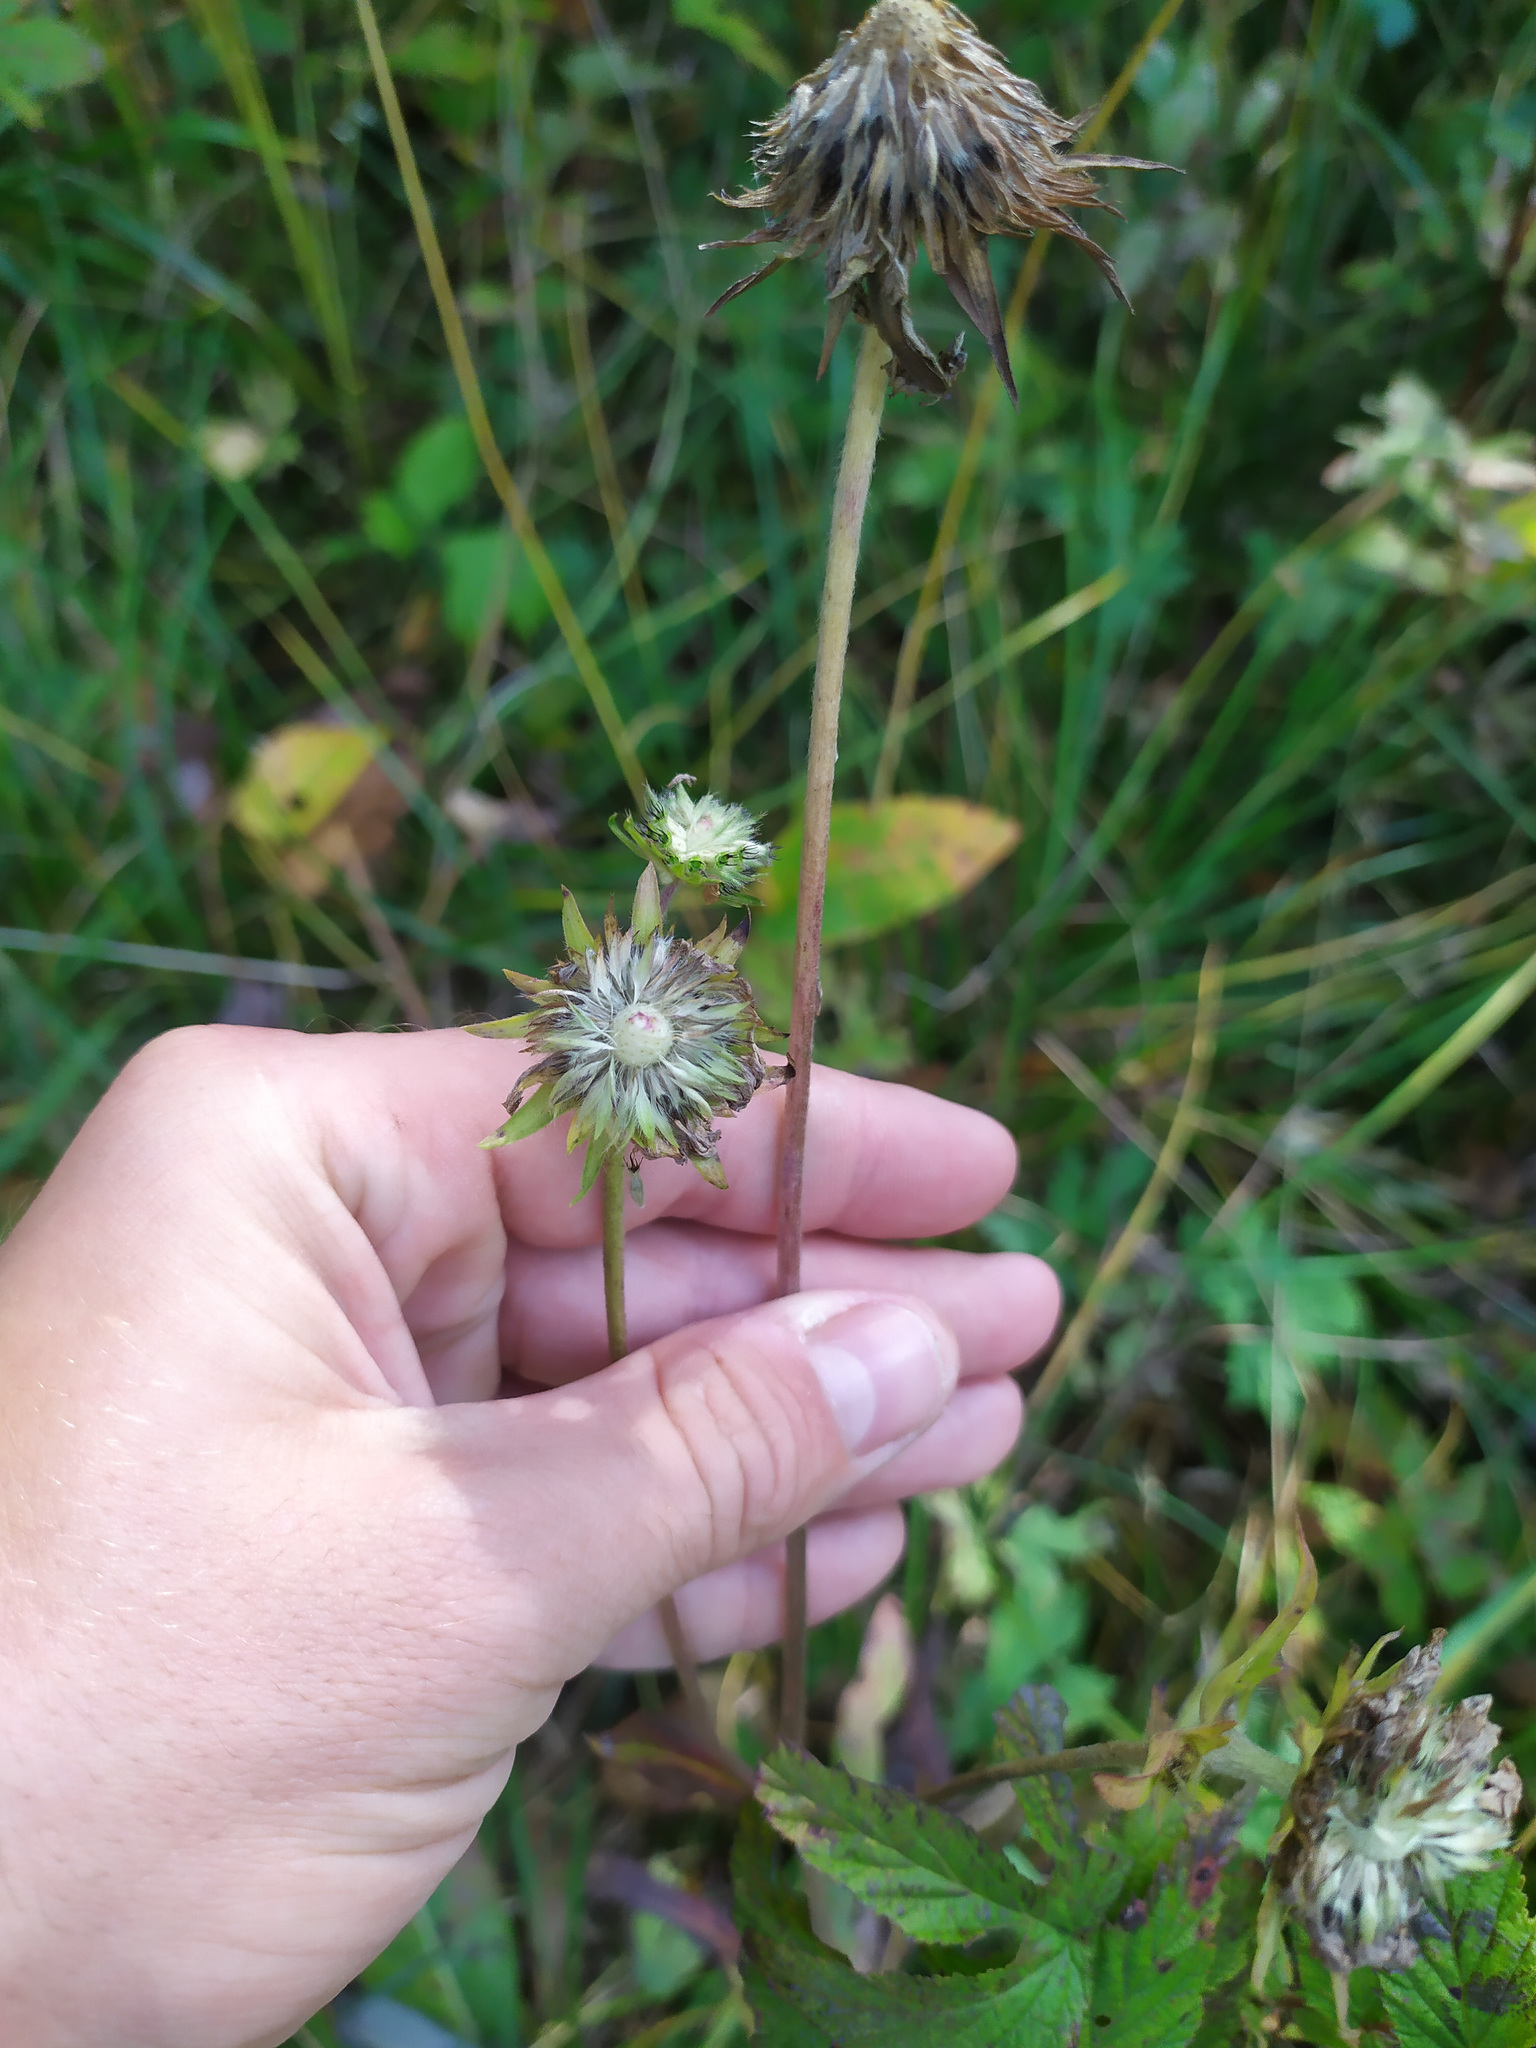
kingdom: Plantae
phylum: Tracheophyta
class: Magnoliopsida
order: Dipsacales
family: Caprifoliaceae
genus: Succisa
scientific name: Succisa pratensis
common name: Devil's-bit
